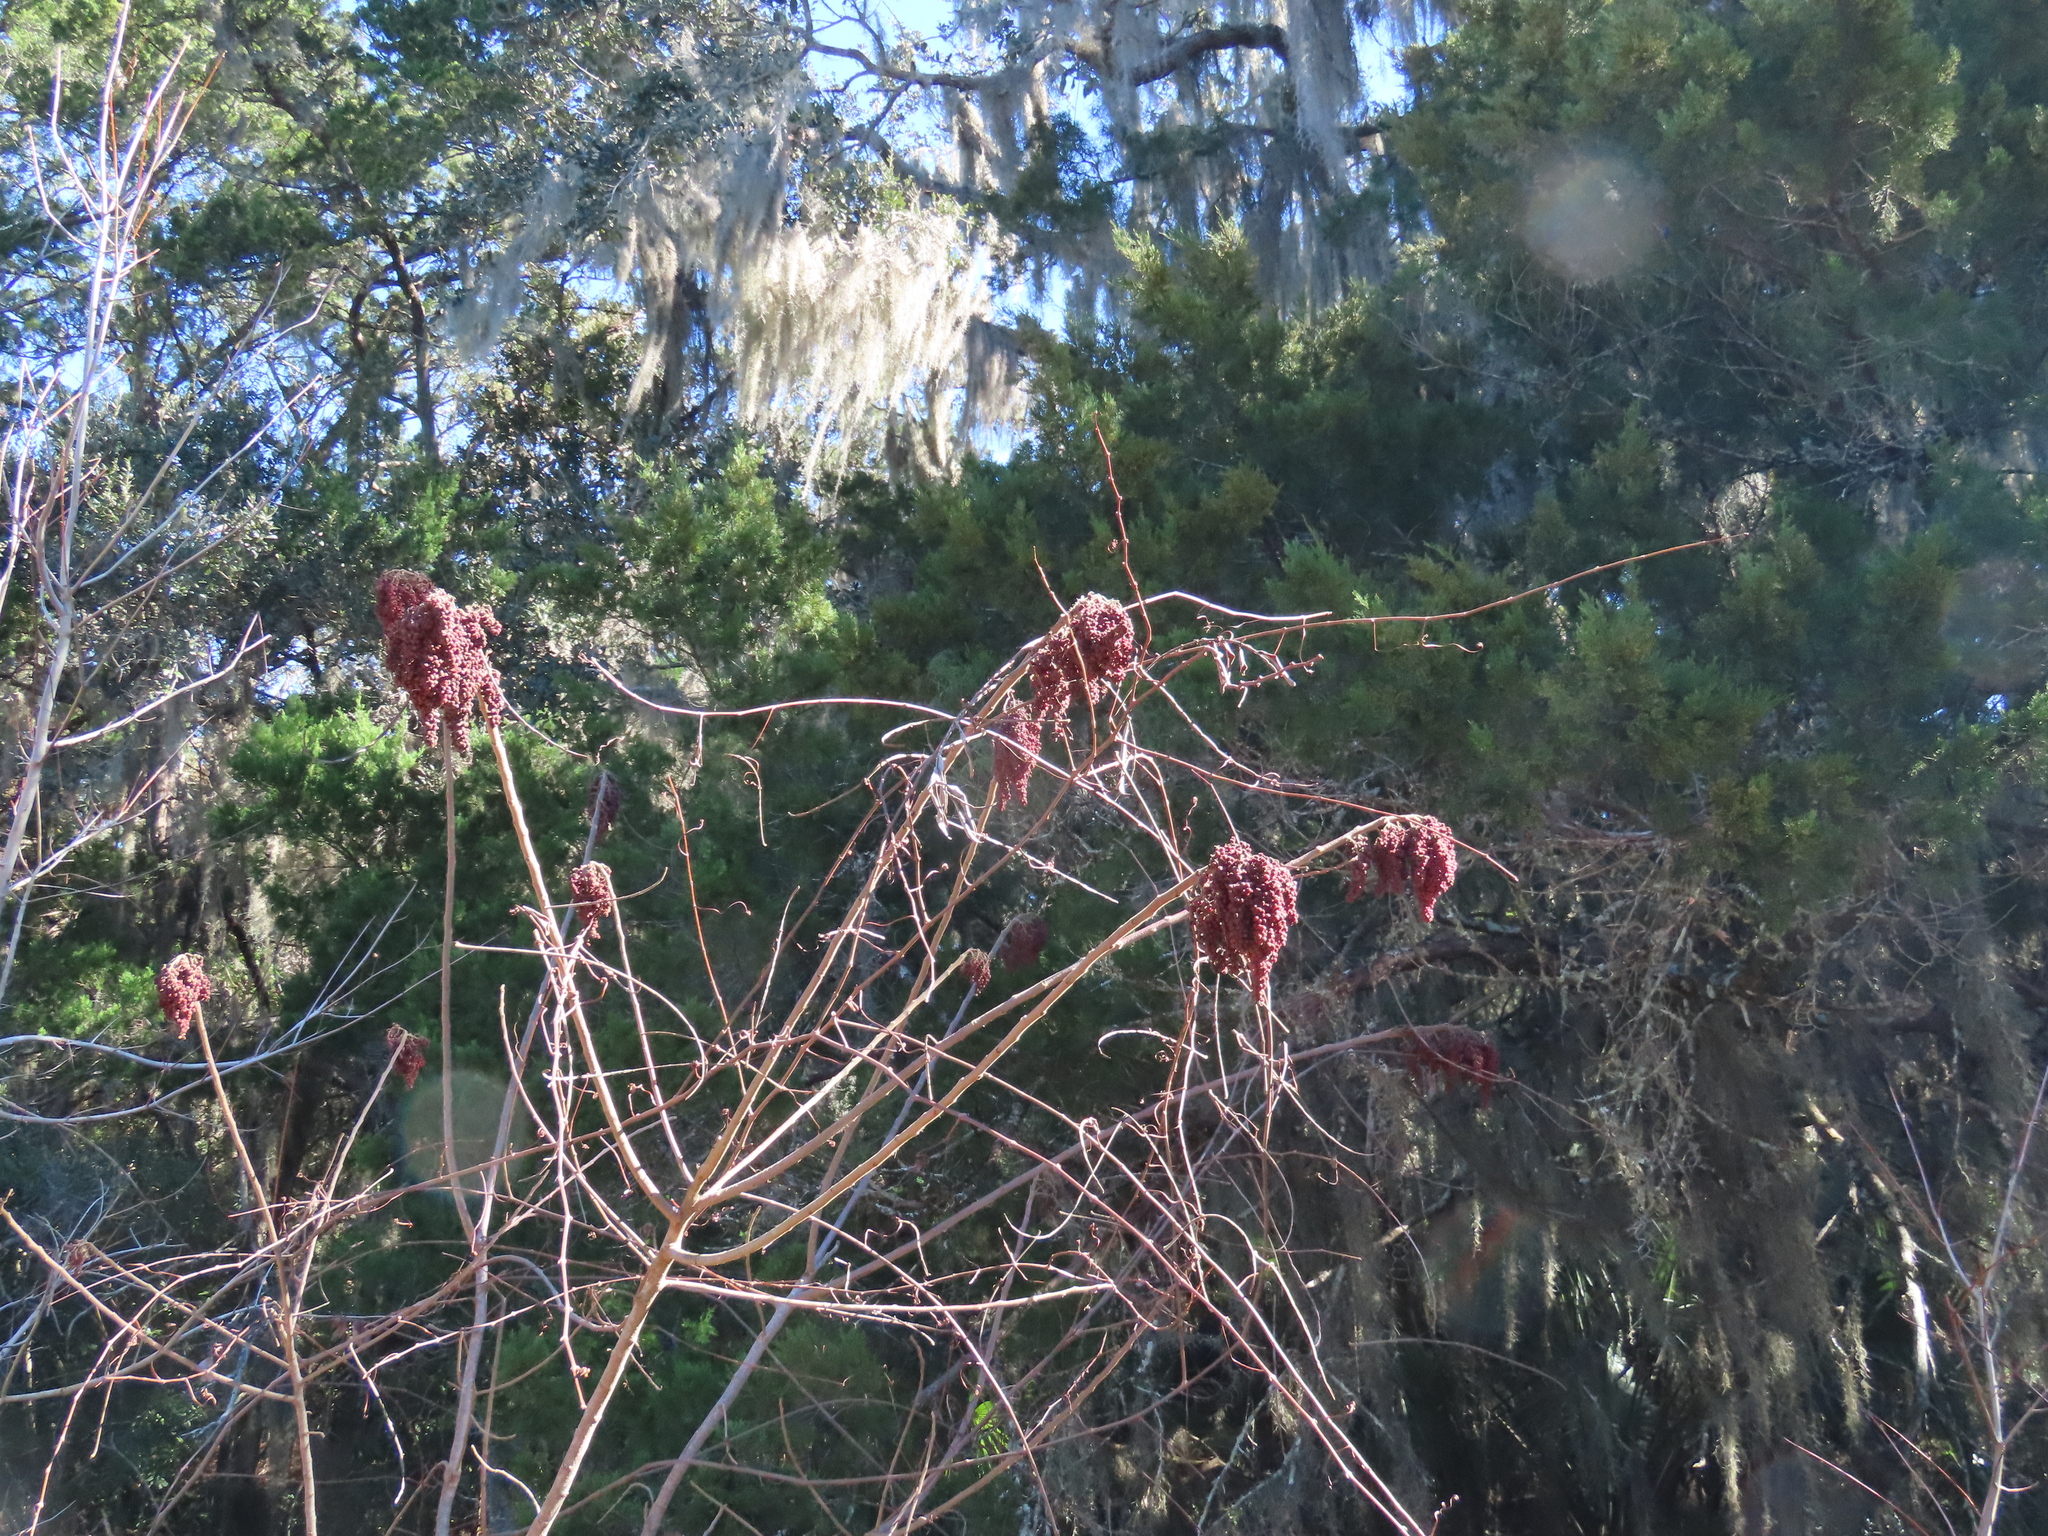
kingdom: Plantae
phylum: Tracheophyta
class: Magnoliopsida
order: Sapindales
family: Anacardiaceae
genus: Rhus
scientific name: Rhus copallina
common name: Shining sumac
